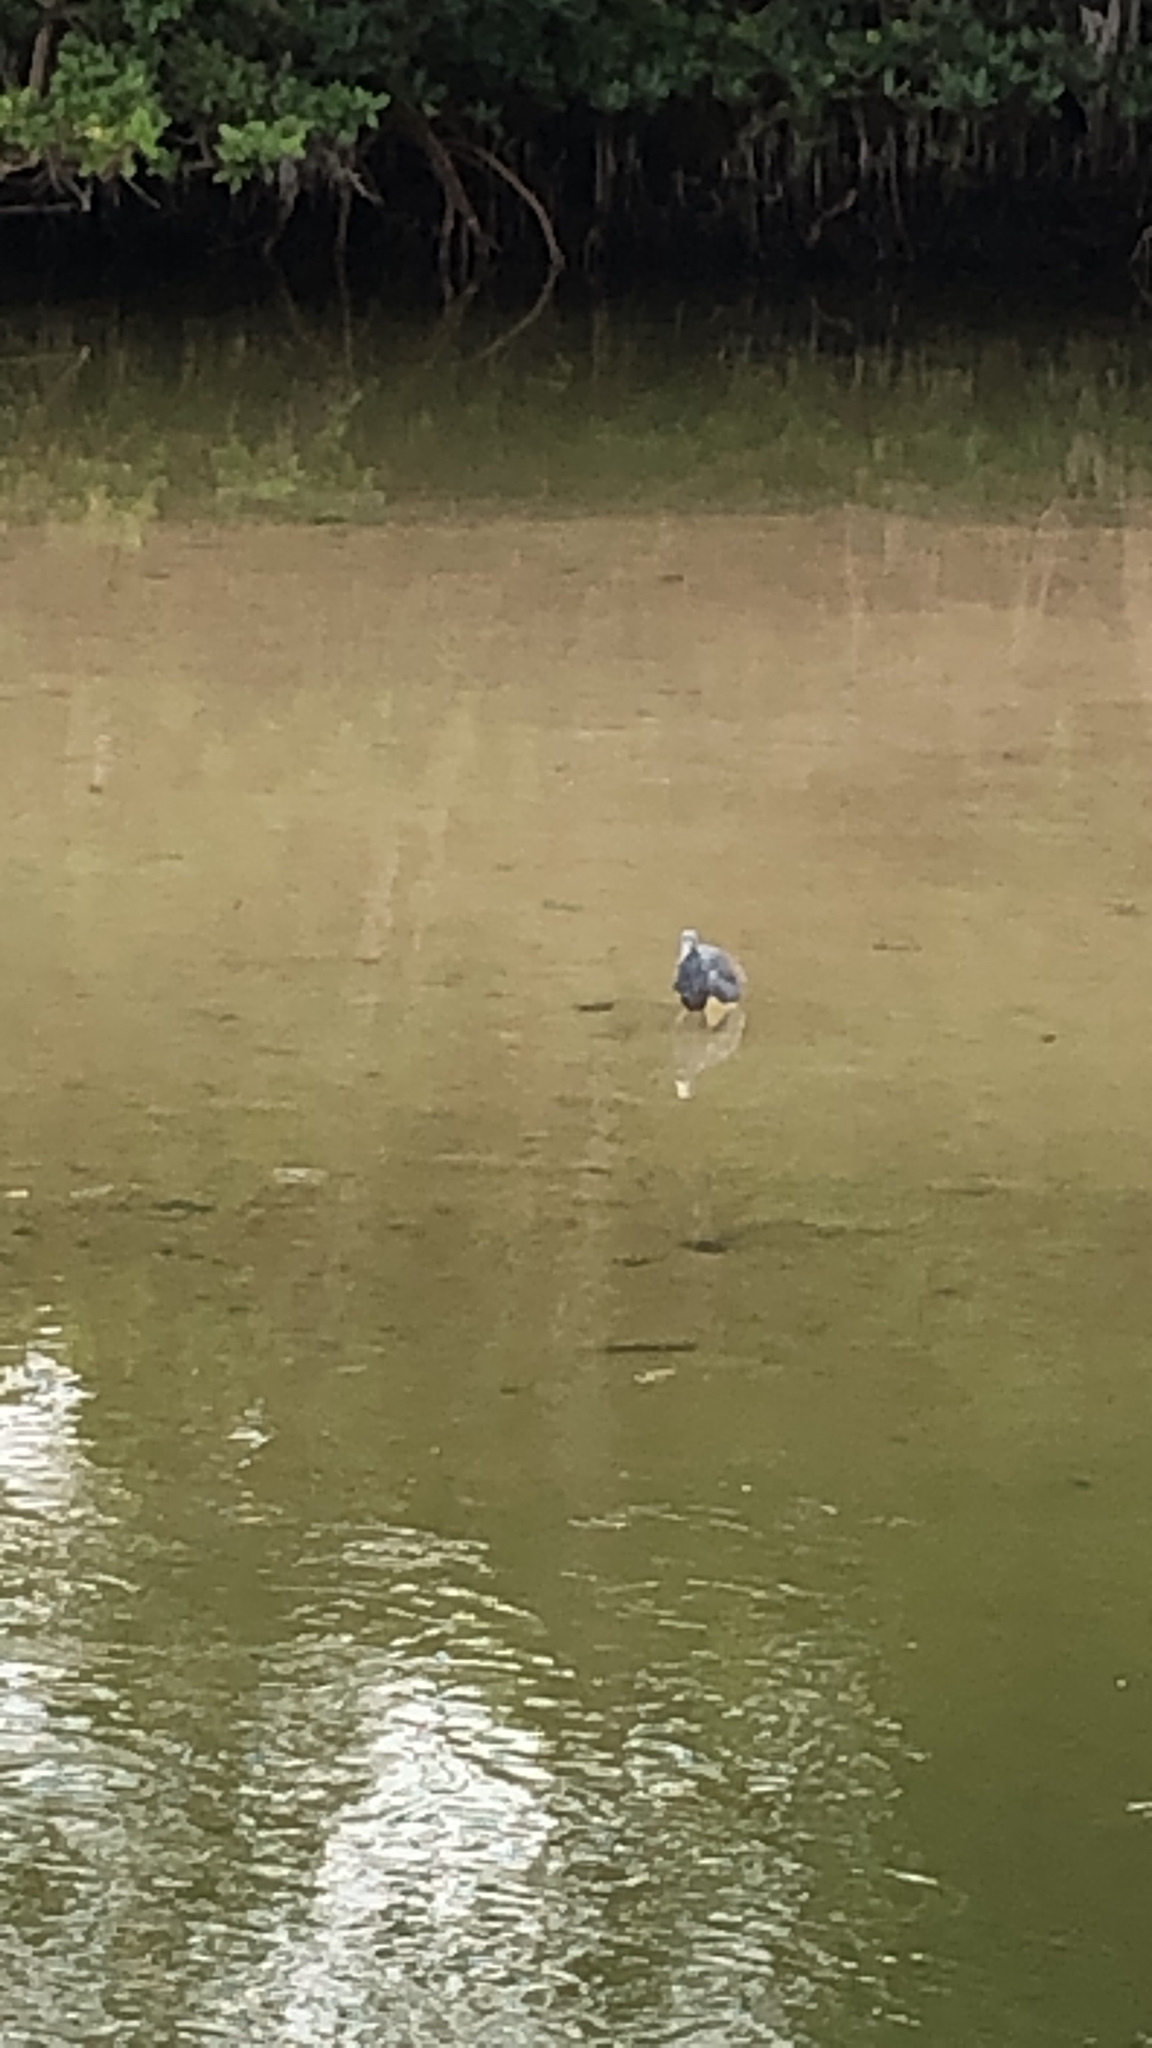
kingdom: Animalia
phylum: Chordata
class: Aves
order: Pelecaniformes
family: Ardeidae
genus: Egretta
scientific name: Egretta tricolor
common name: Tricolored heron
